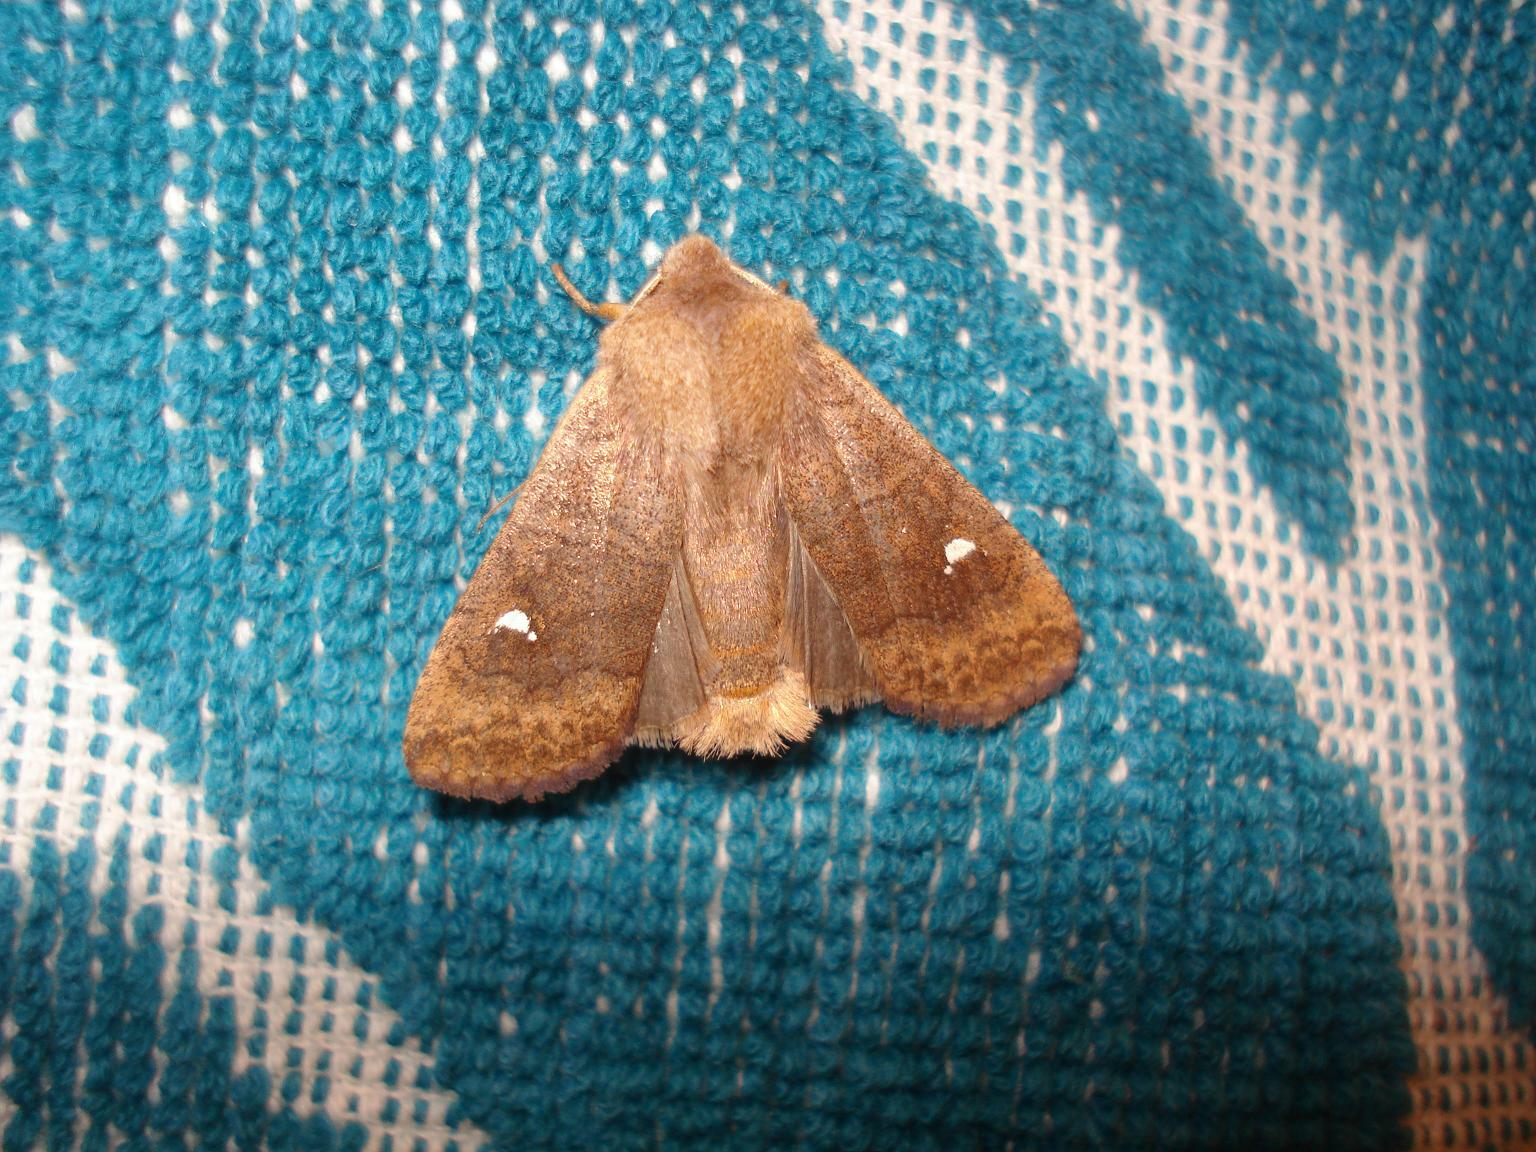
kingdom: Animalia
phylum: Arthropoda
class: Insecta
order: Lepidoptera
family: Noctuidae
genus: Eupsilia
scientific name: Eupsilia transversa
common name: Satellite
